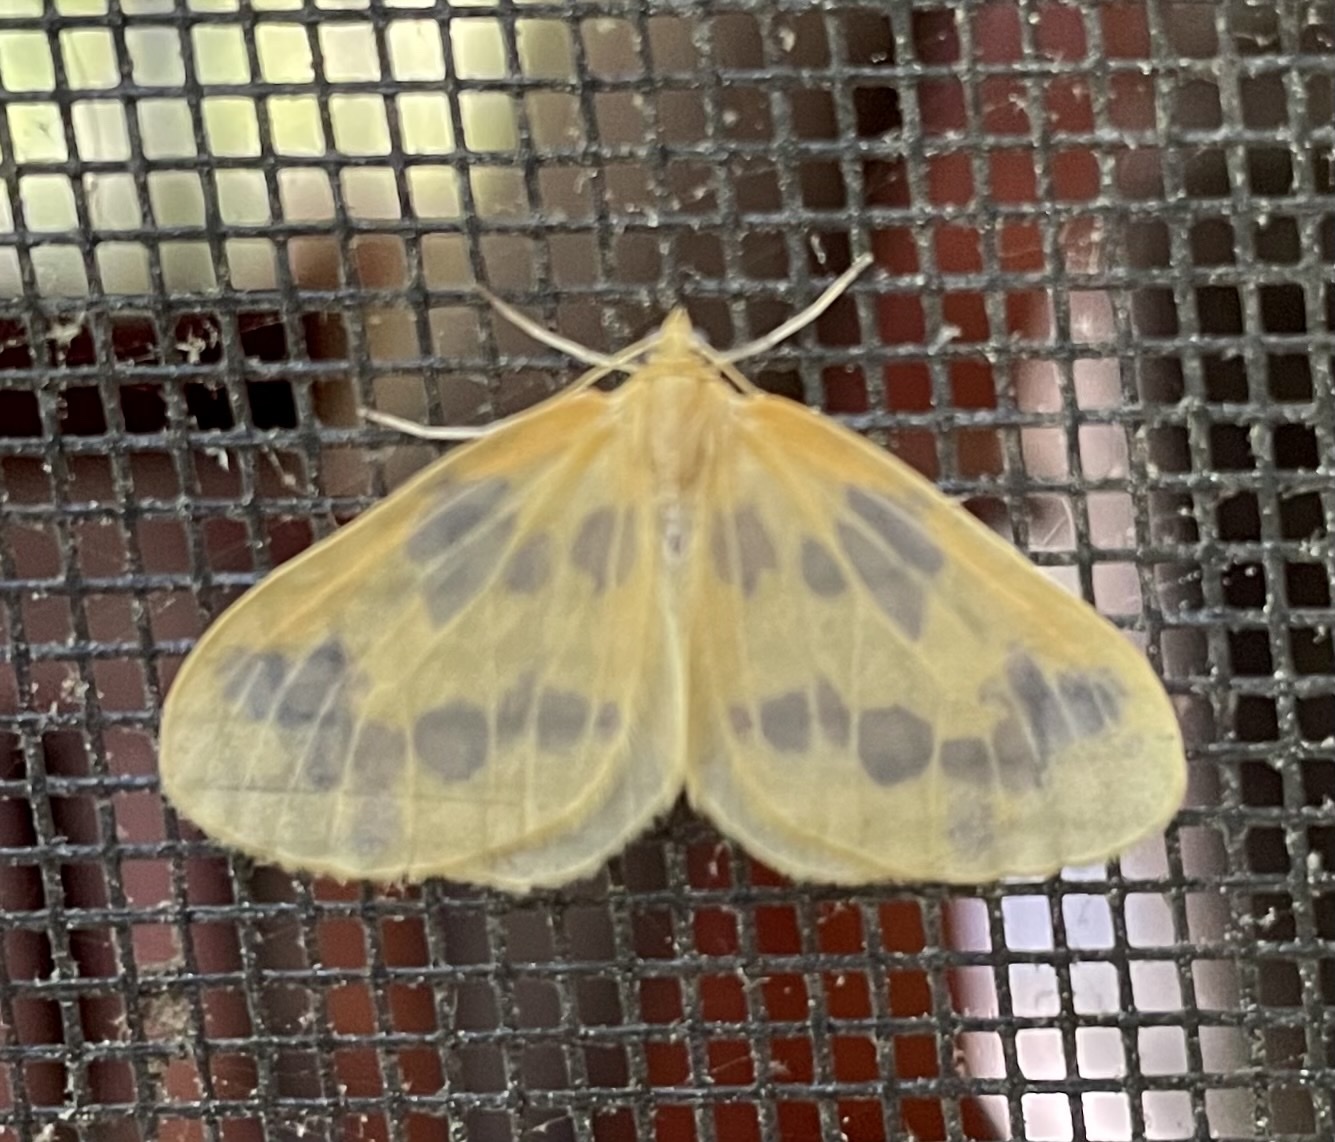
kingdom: Animalia
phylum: Arthropoda
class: Insecta
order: Lepidoptera
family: Geometridae
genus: Eubaphe
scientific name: Eubaphe mendica
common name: Beggar
